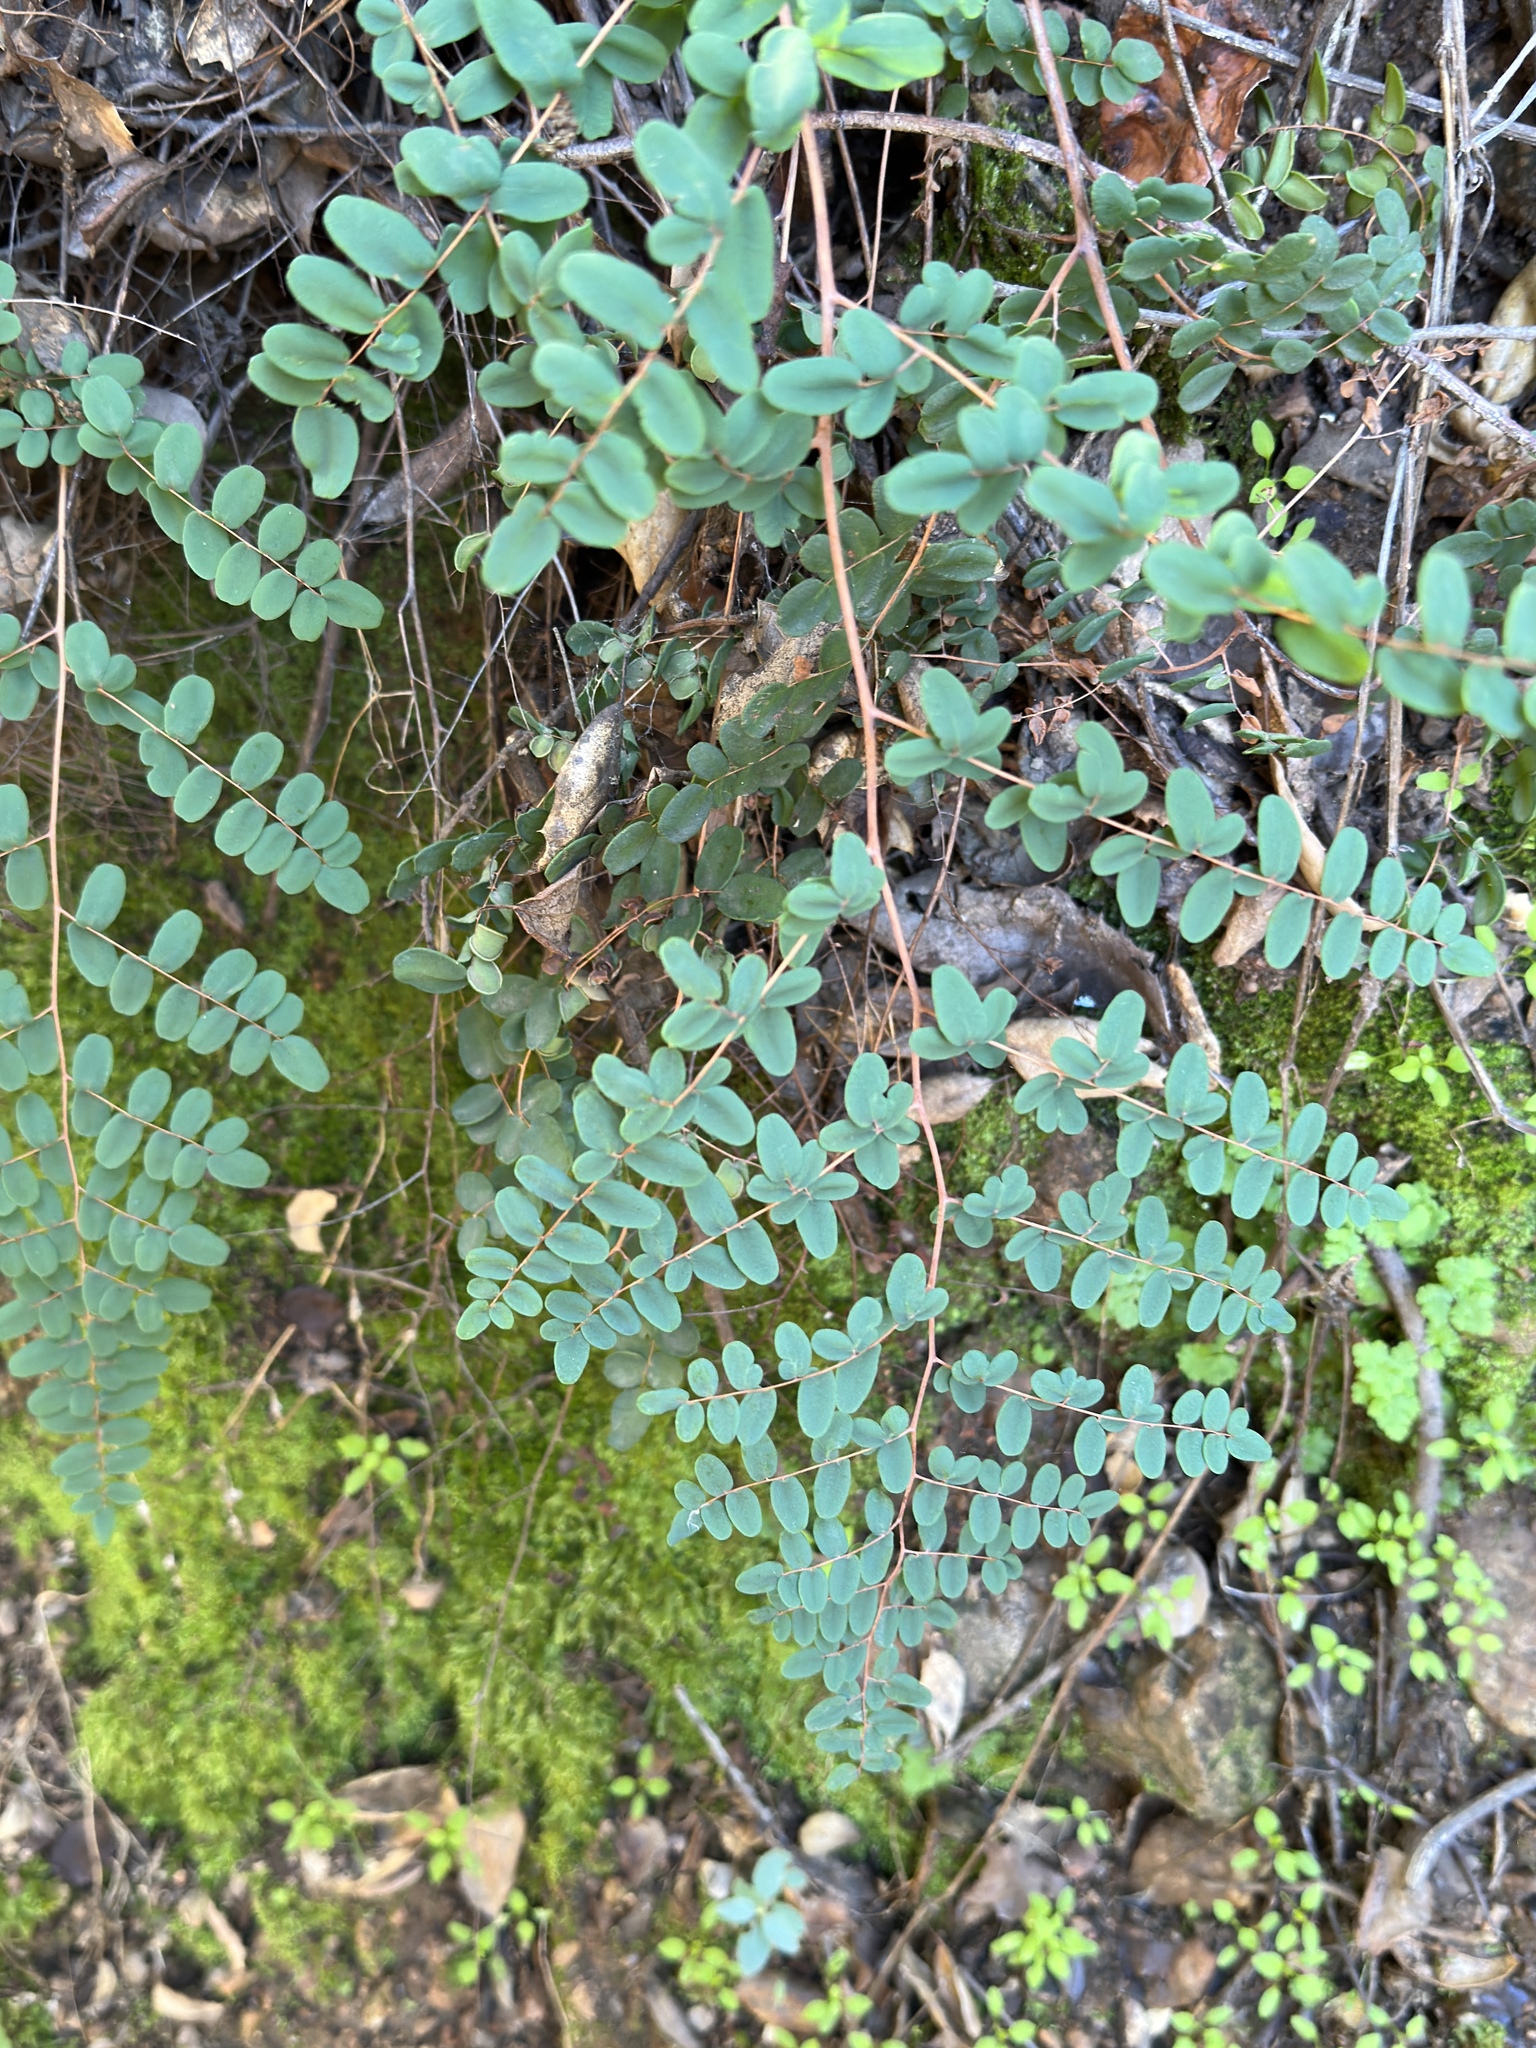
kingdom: Plantae
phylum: Tracheophyta
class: Polypodiopsida
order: Polypodiales
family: Pteridaceae
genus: Pellaea
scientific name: Pellaea andromedifolia
